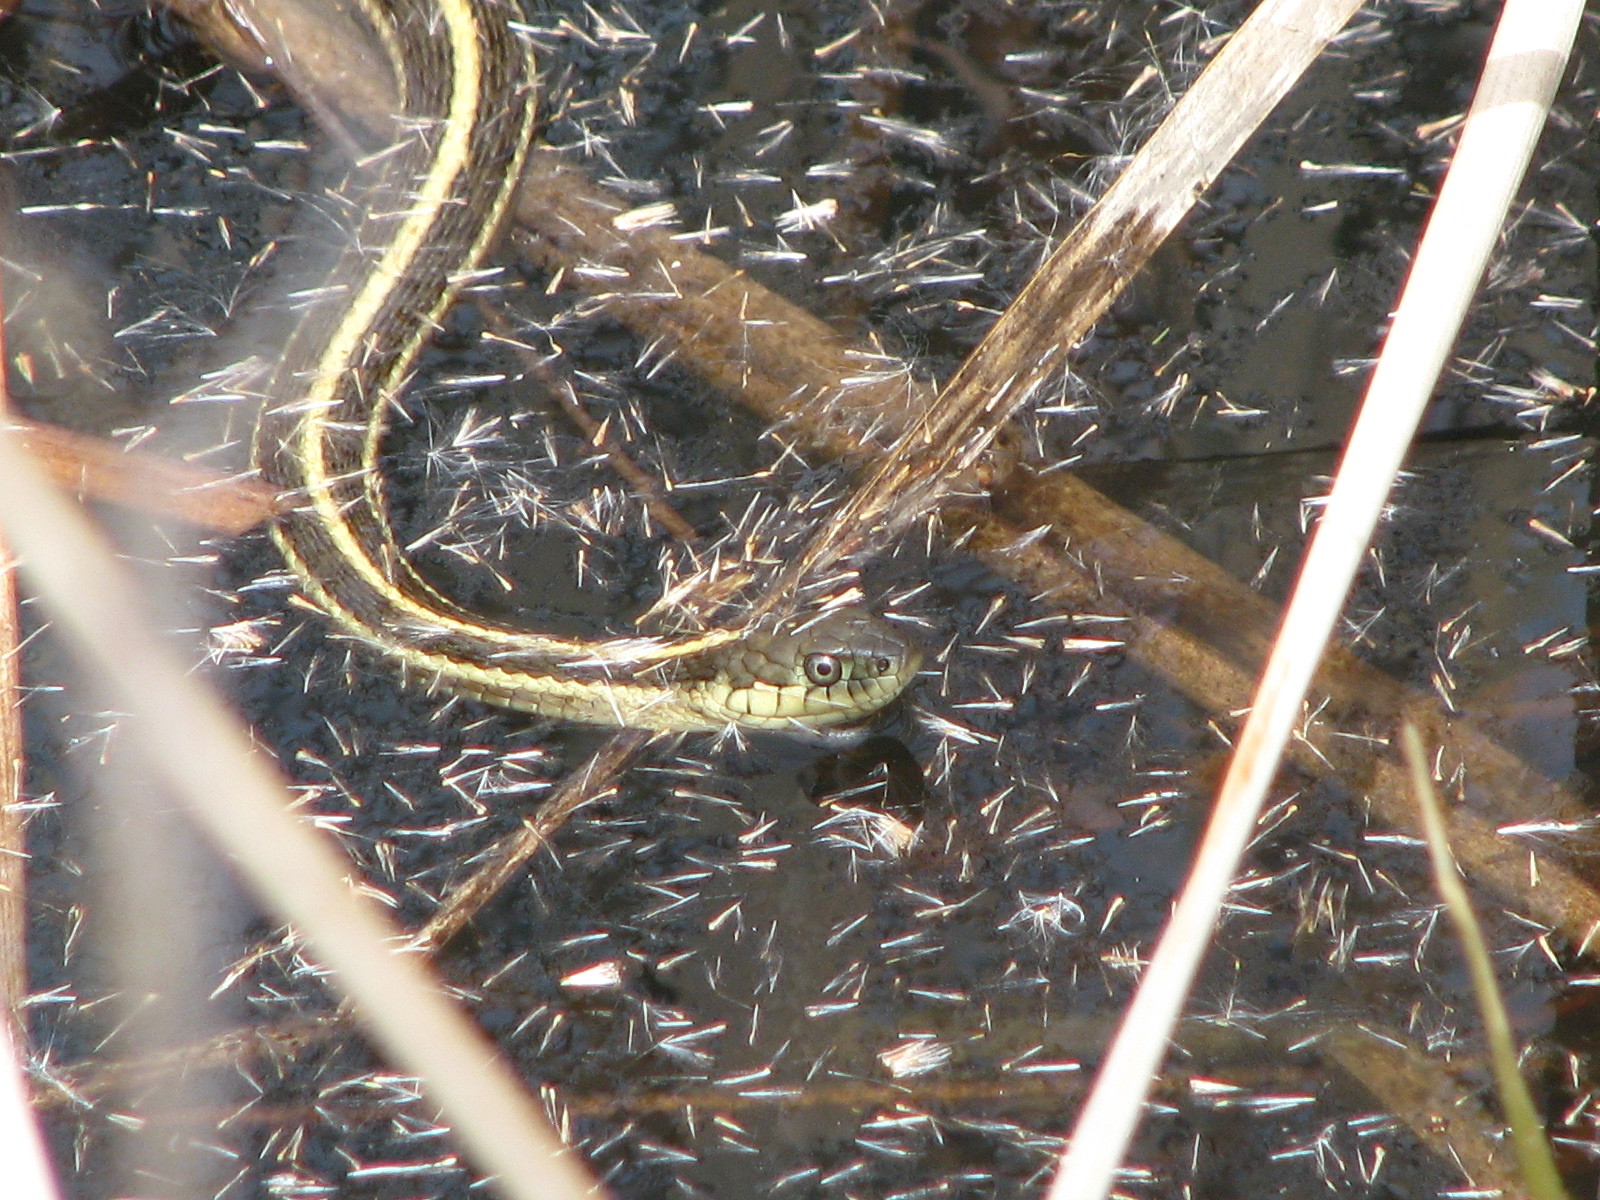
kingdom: Animalia
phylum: Chordata
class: Squamata
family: Colubridae
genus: Thamnophis
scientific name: Thamnophis atratus
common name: Pacific coast aquatic garter snake
